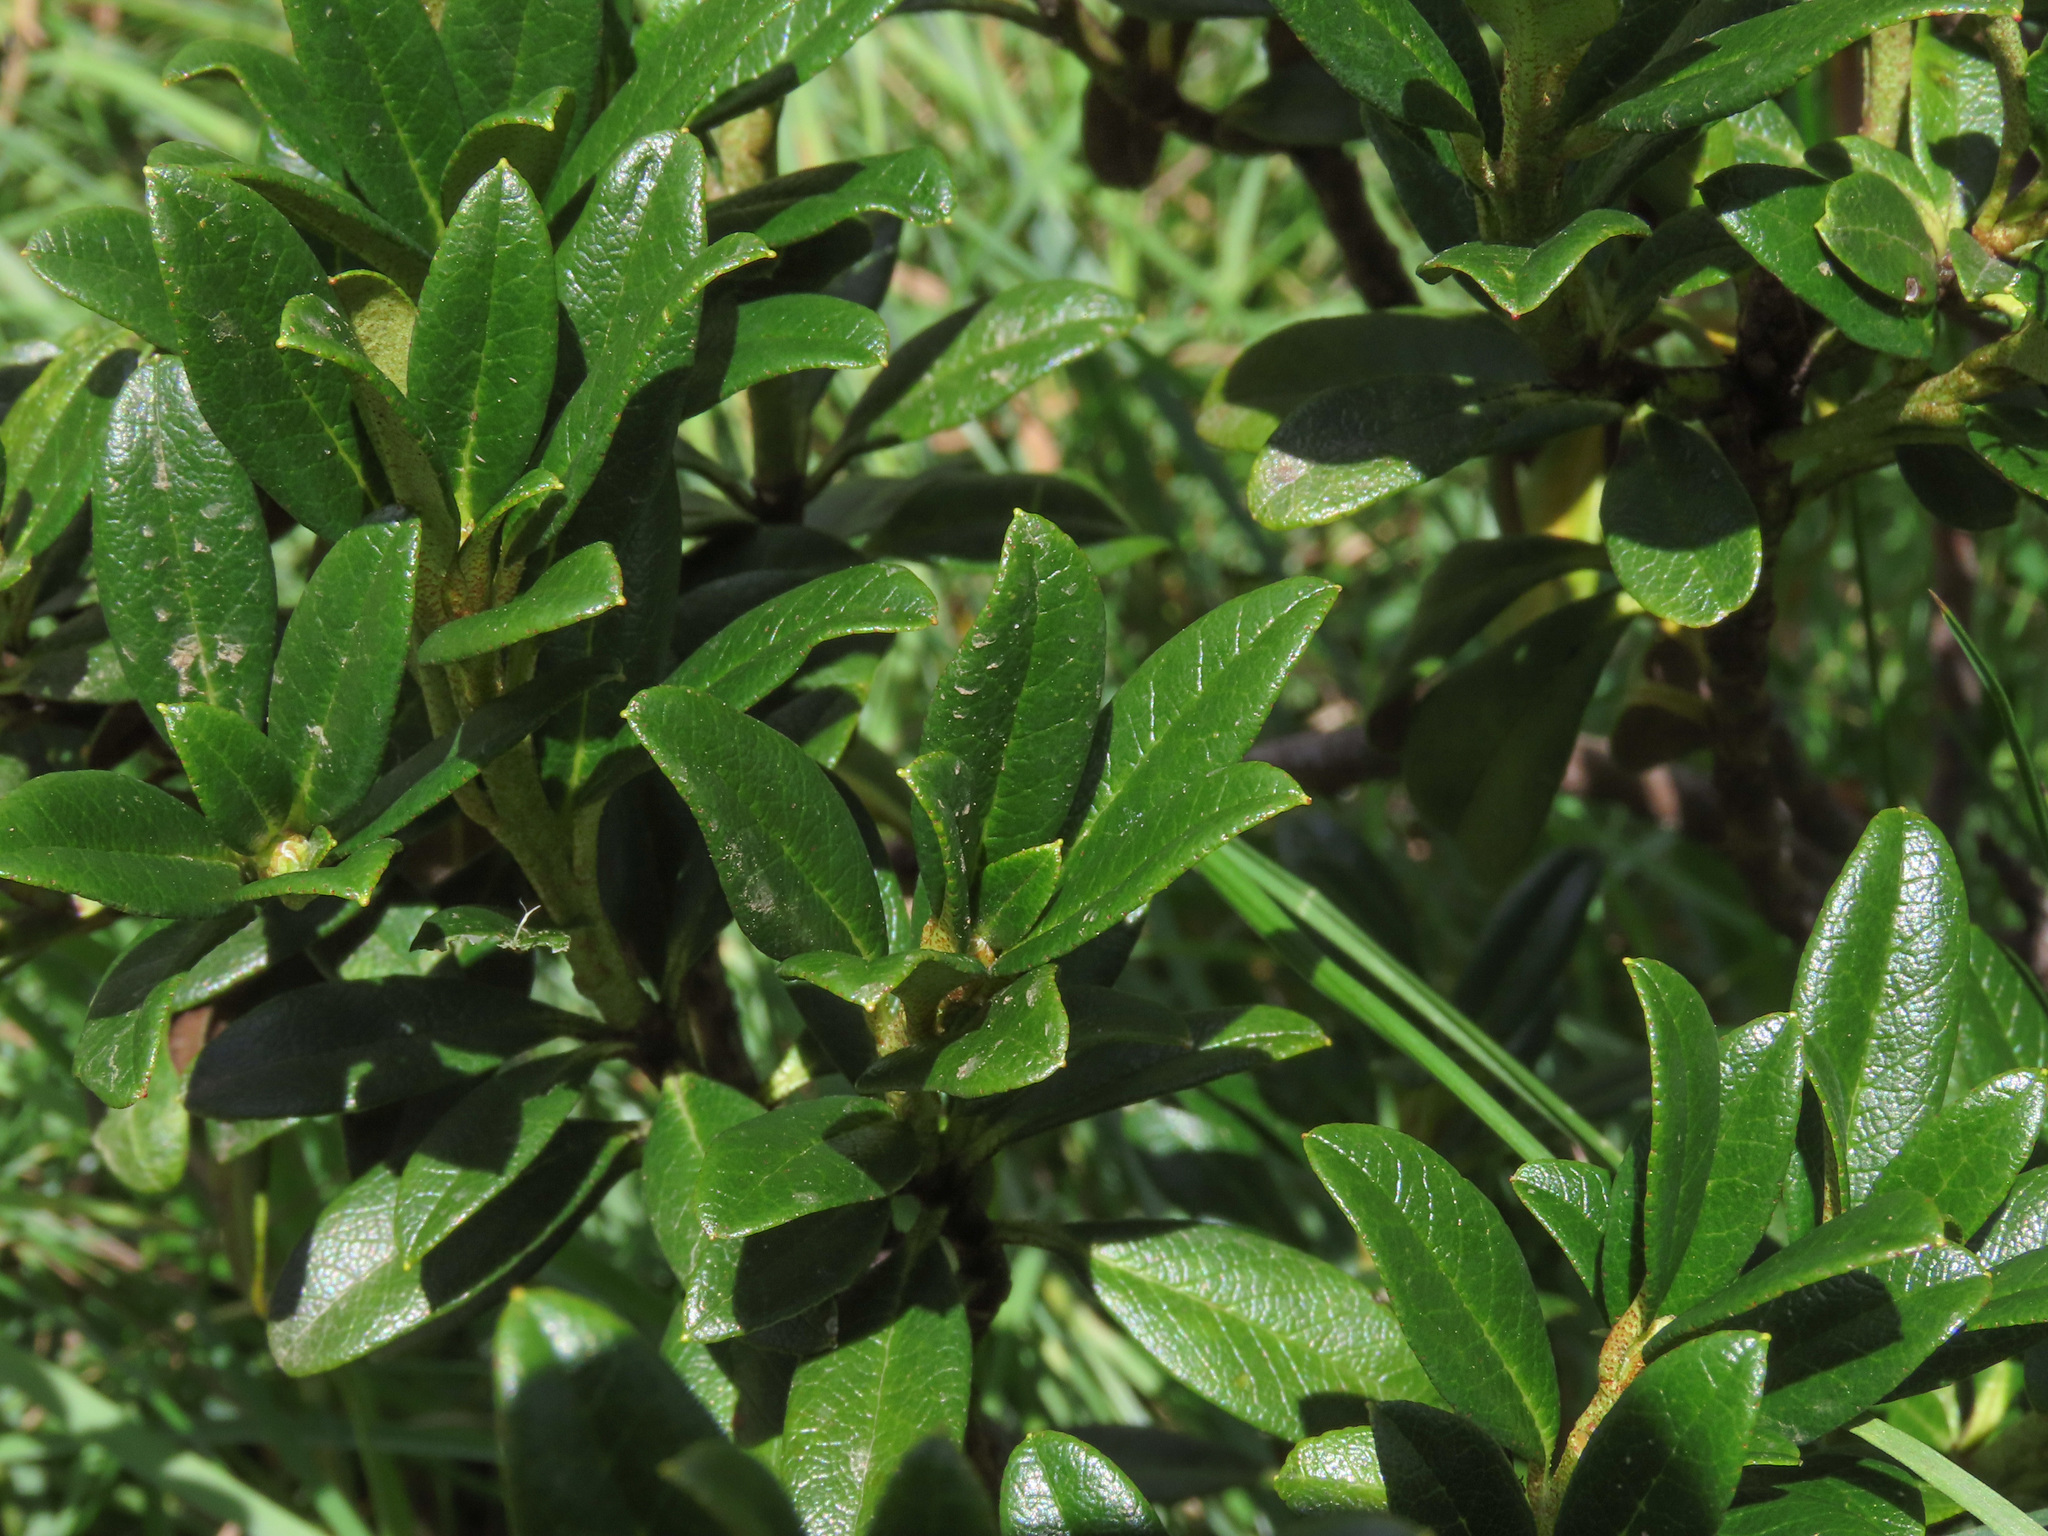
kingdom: Plantae
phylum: Tracheophyta
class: Magnoliopsida
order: Ericales
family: Ericaceae
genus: Rhododendron
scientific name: Rhododendron ferrugineum
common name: Alpenrose
